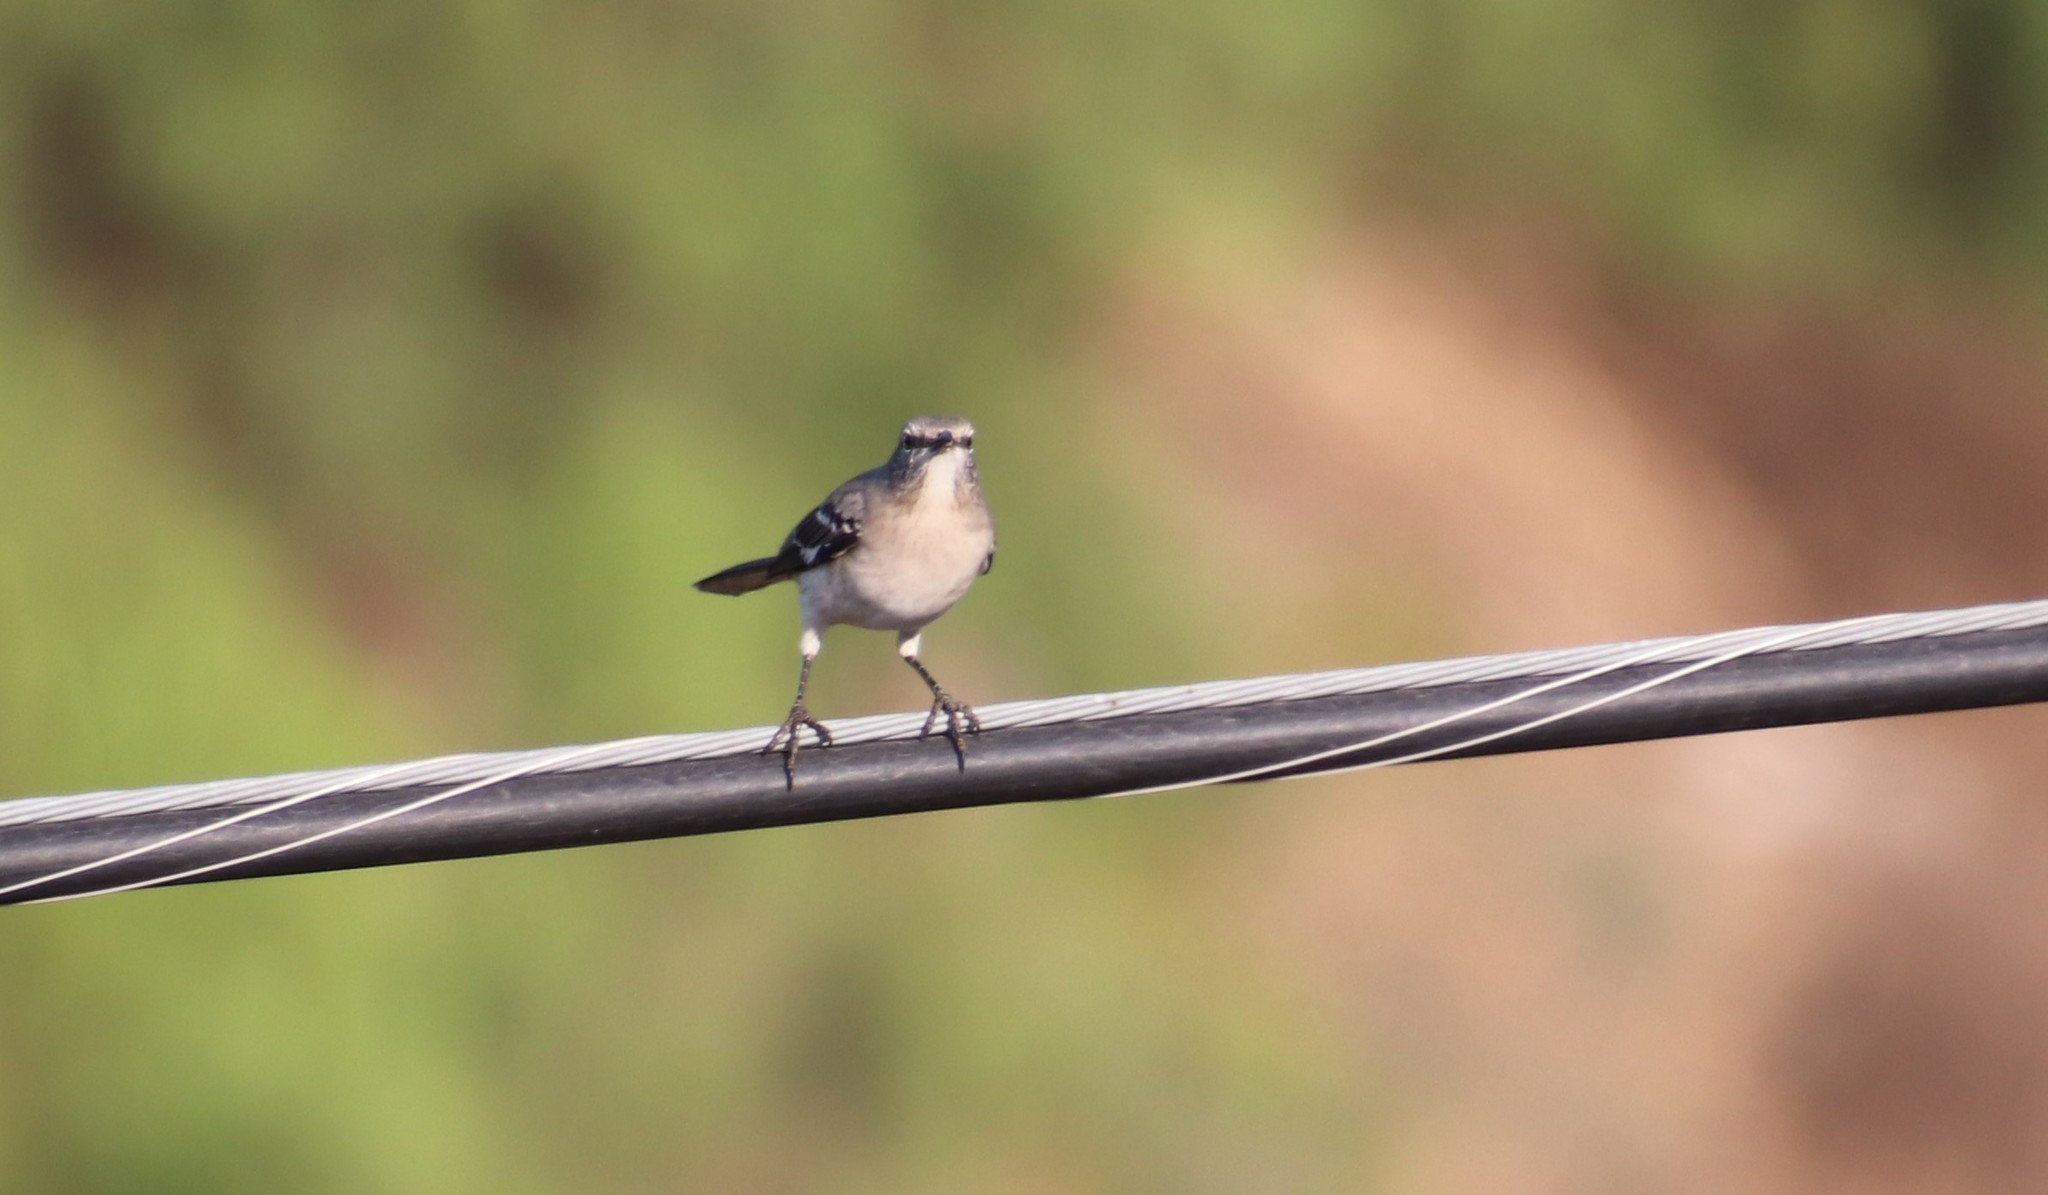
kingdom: Animalia
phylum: Chordata
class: Aves
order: Passeriformes
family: Mimidae
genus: Mimus
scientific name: Mimus polyglottos
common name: Northern mockingbird
